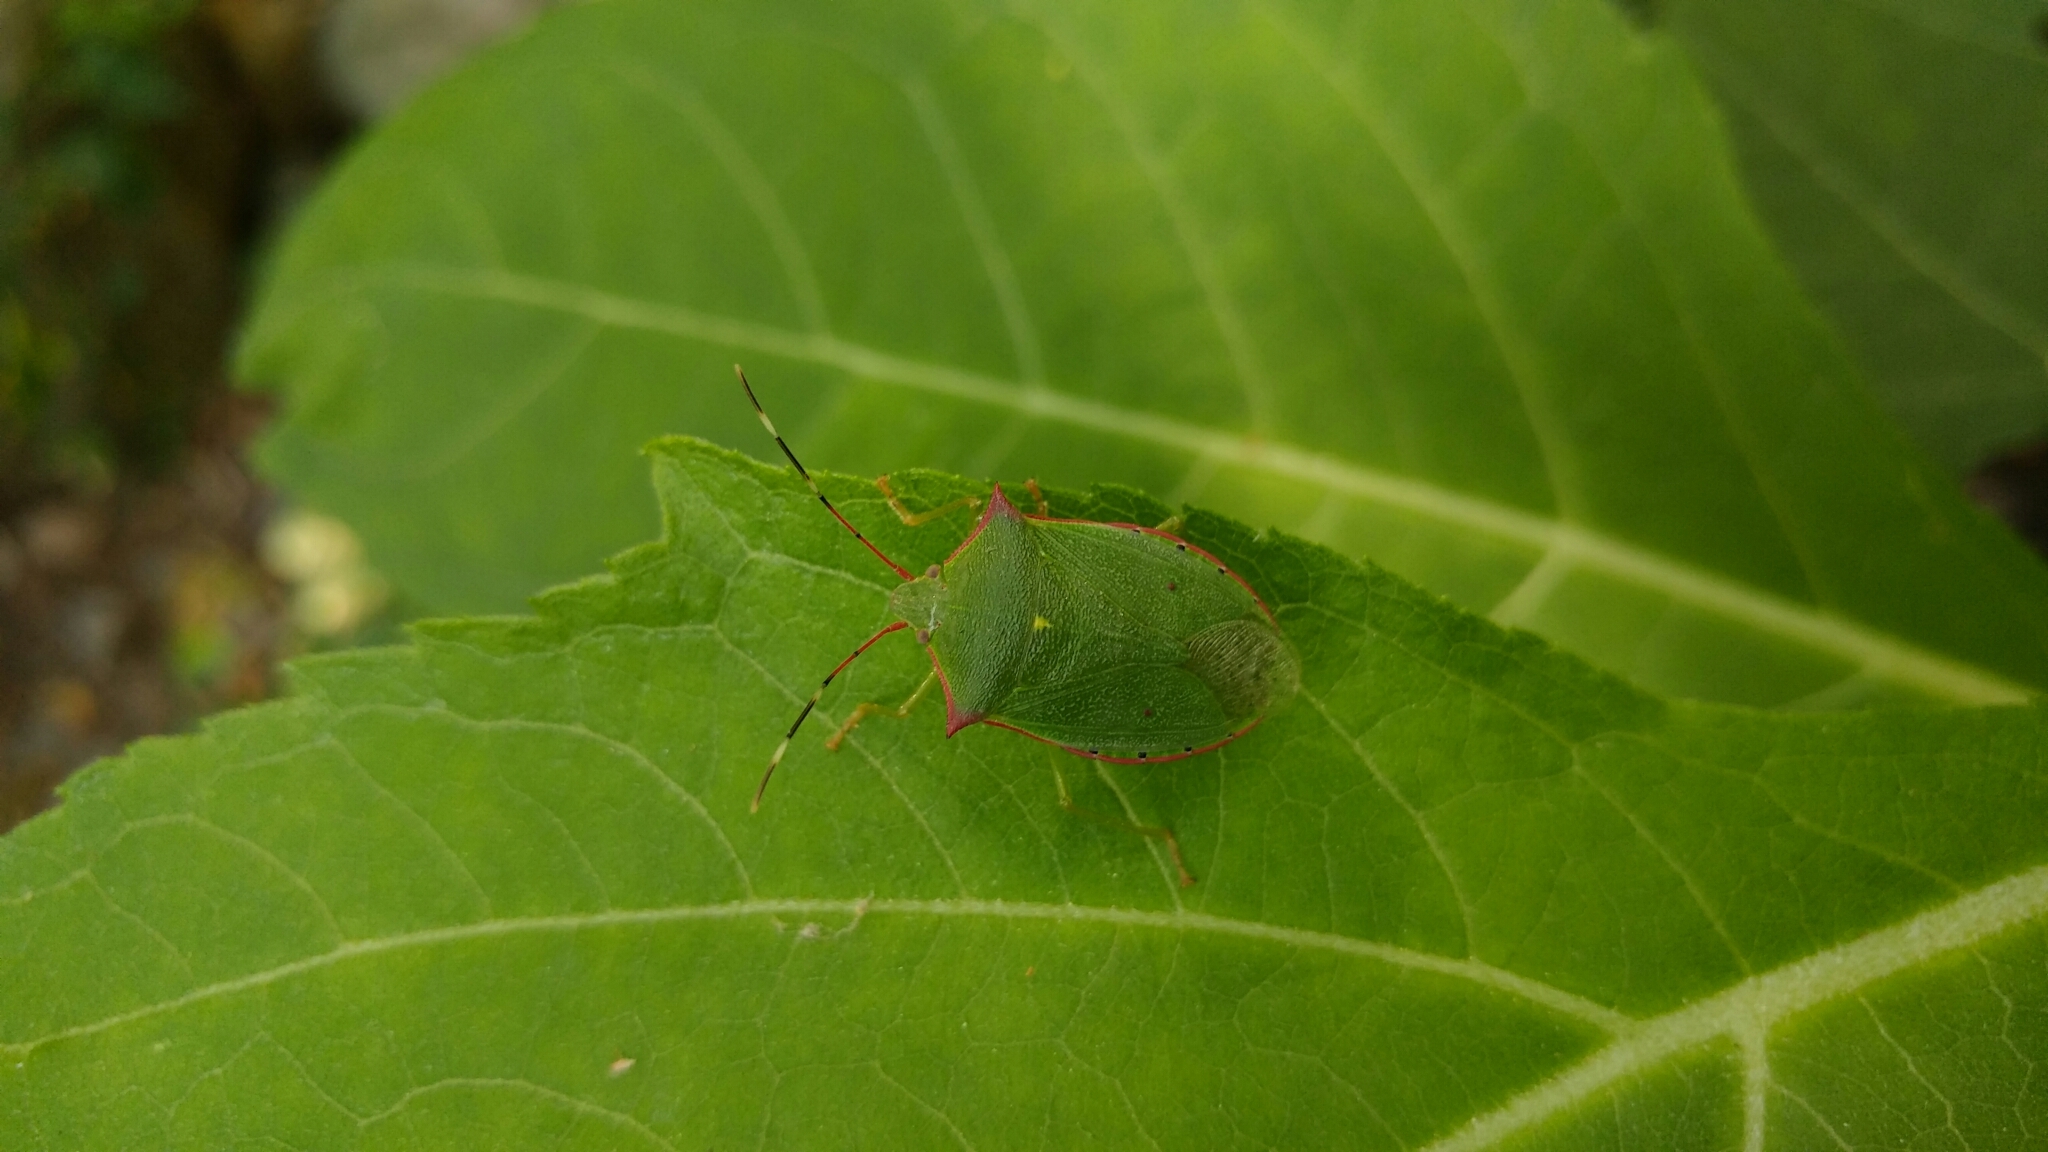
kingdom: Animalia
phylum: Arthropoda
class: Insecta
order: Hemiptera
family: Pentatomidae
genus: Chlorocoris
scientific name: Chlorocoris
